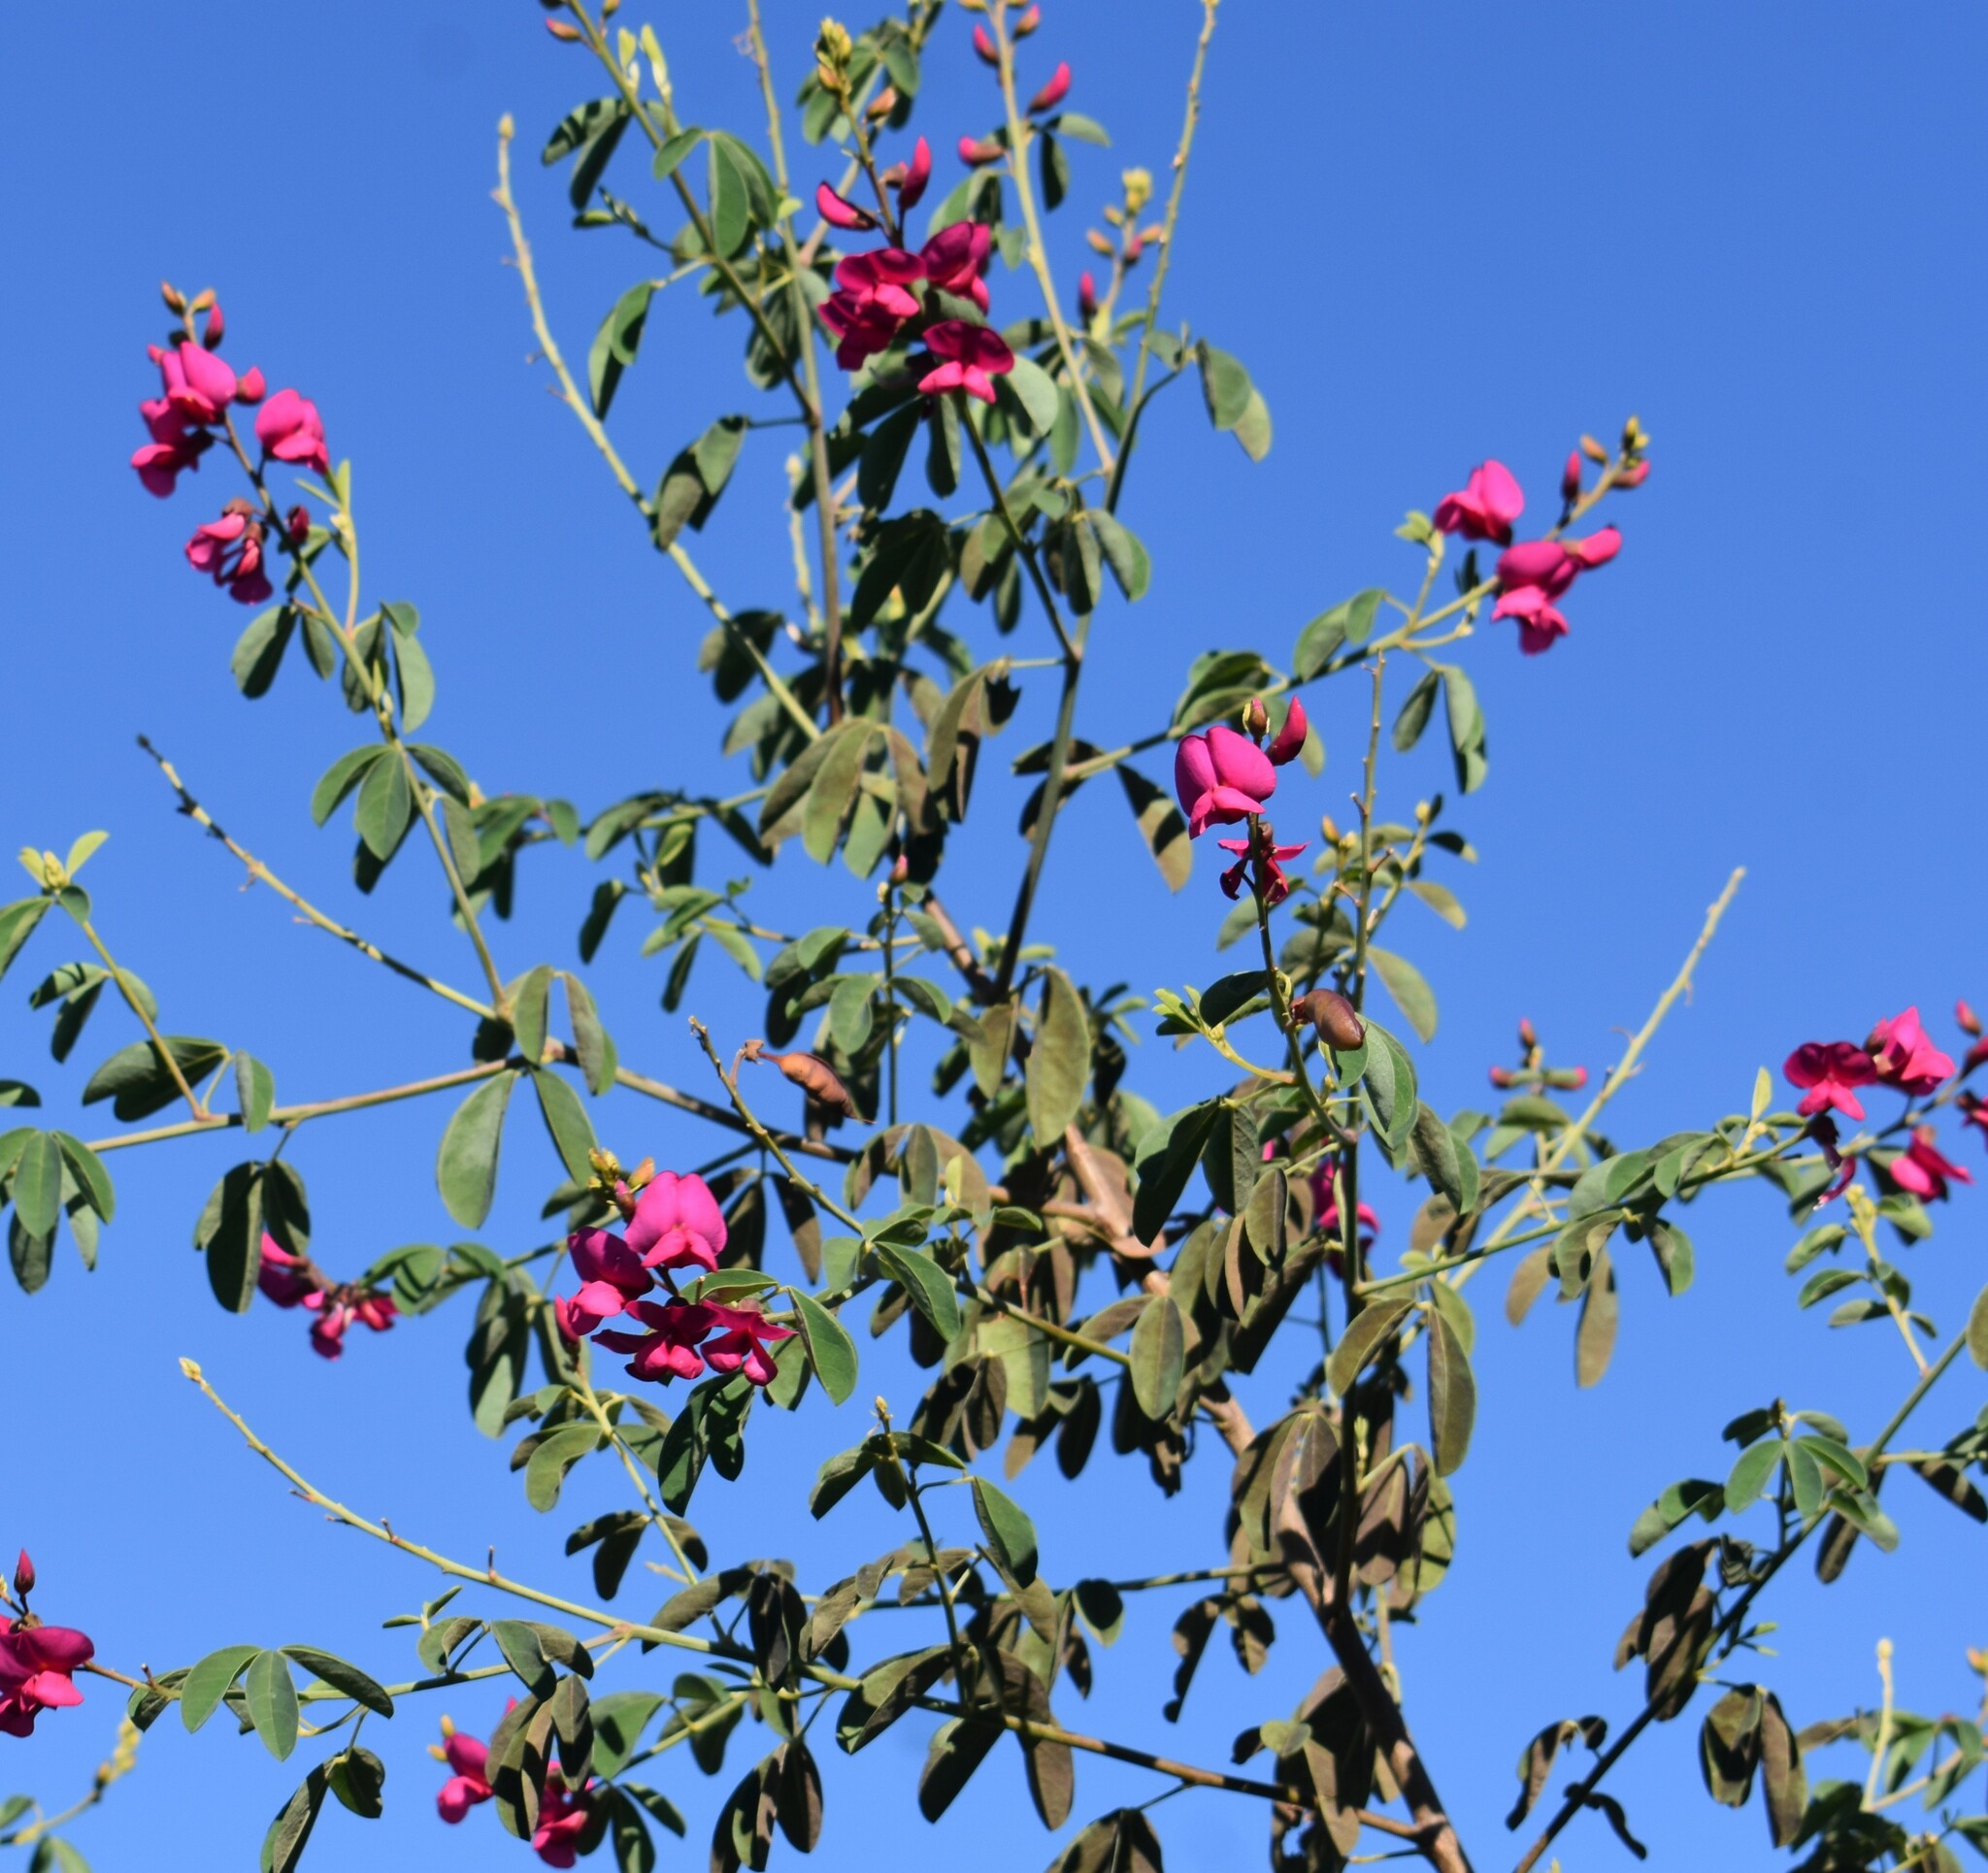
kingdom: Plantae
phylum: Tracheophyta
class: Magnoliopsida
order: Fabales
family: Fabaceae
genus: Hypocalyptus
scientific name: Hypocalyptus coluteoides
